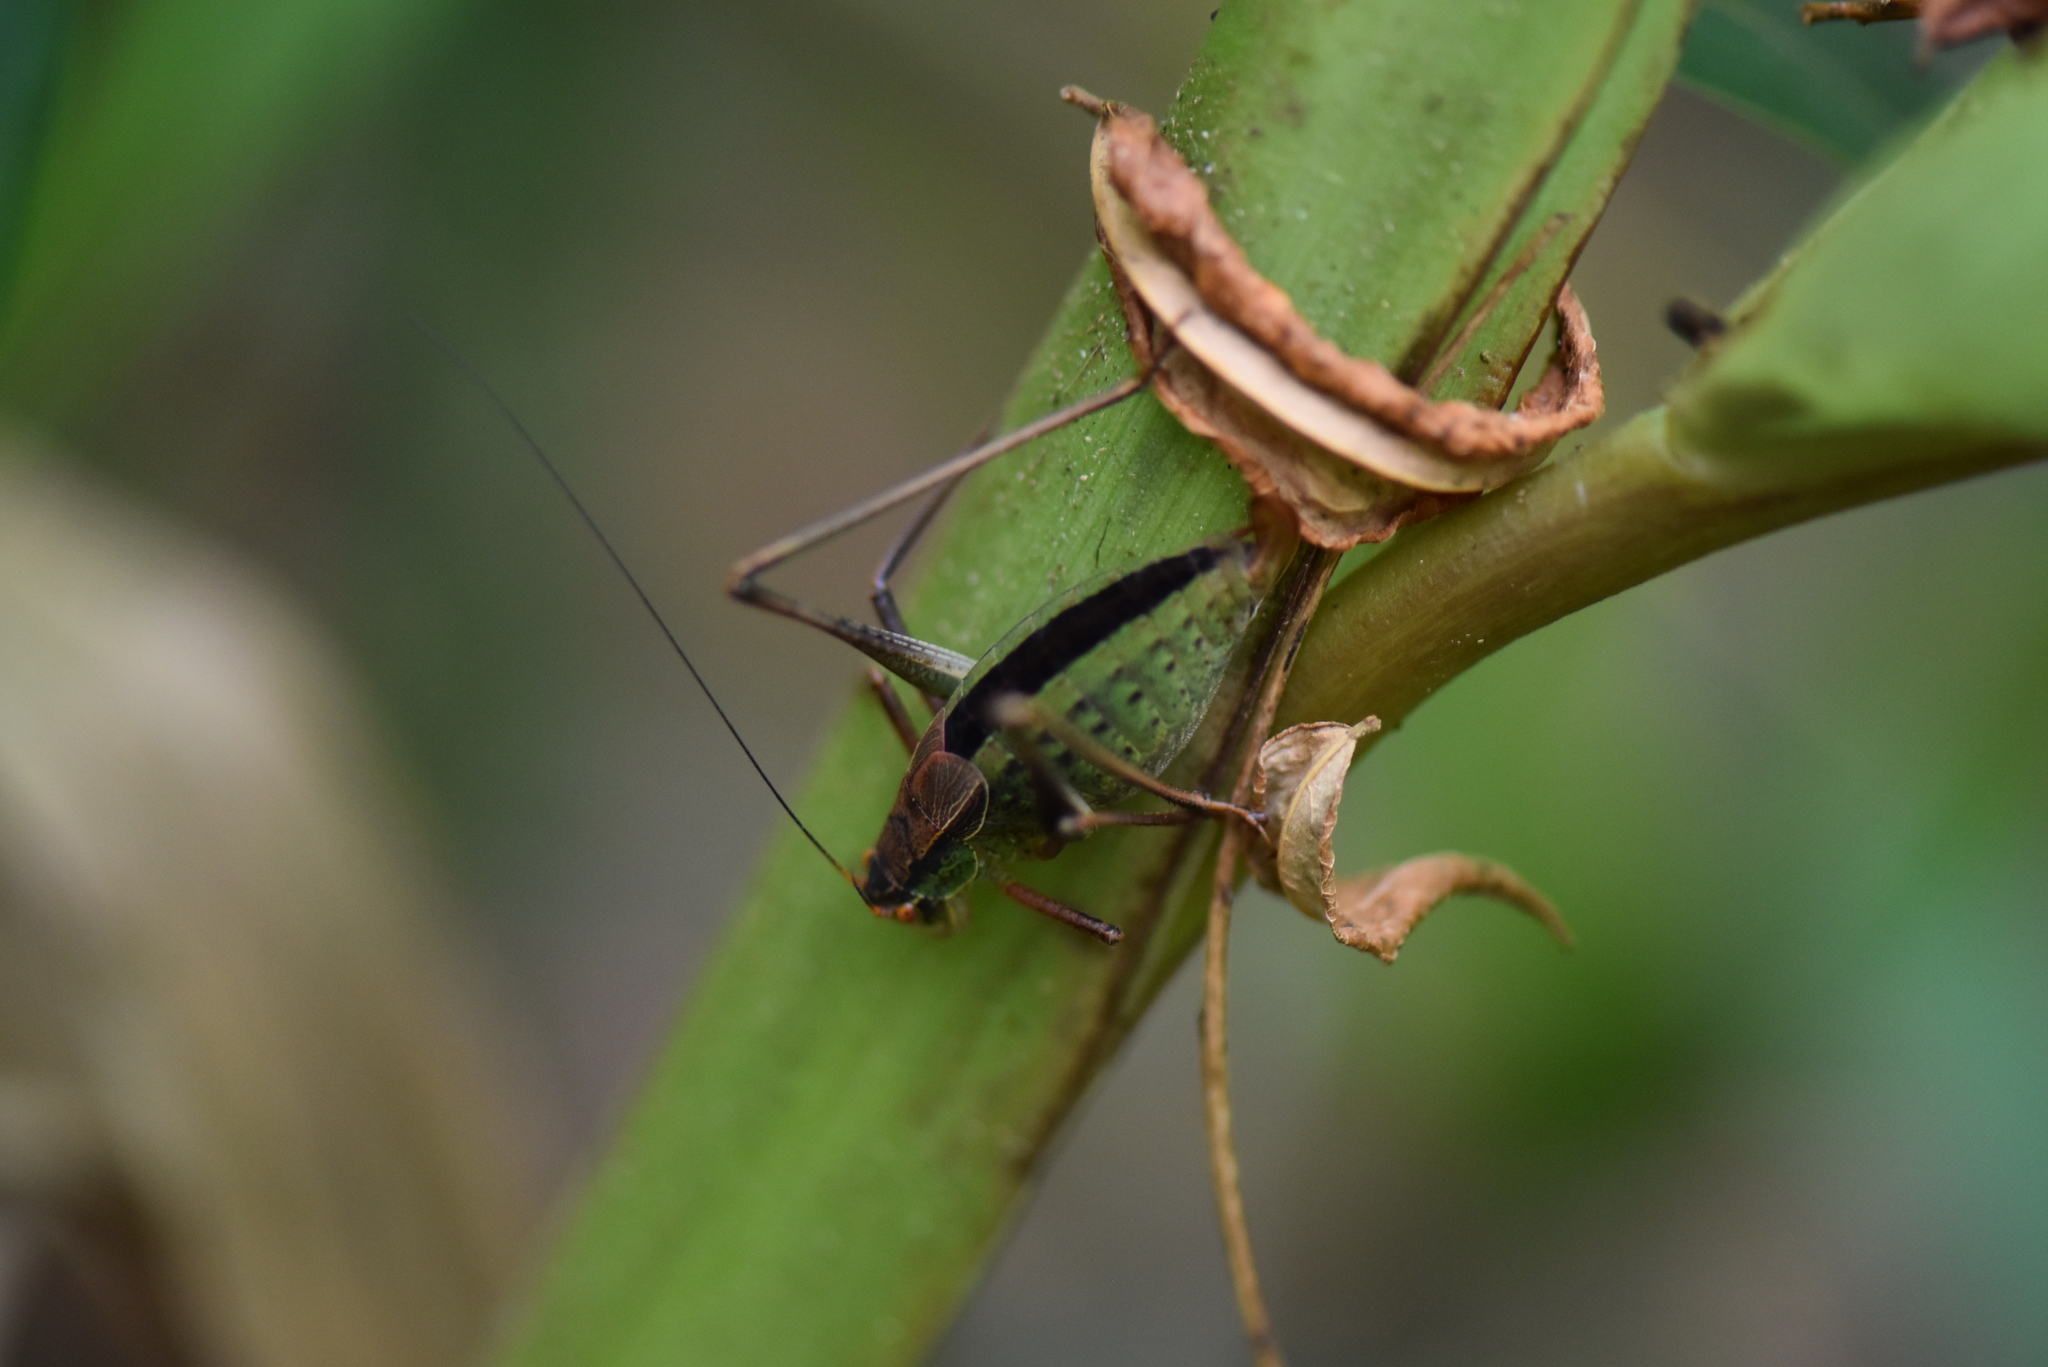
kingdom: Animalia
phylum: Arthropoda
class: Insecta
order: Orthoptera
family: Tettigoniidae
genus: Anisophya
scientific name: Anisophya melanochloris
